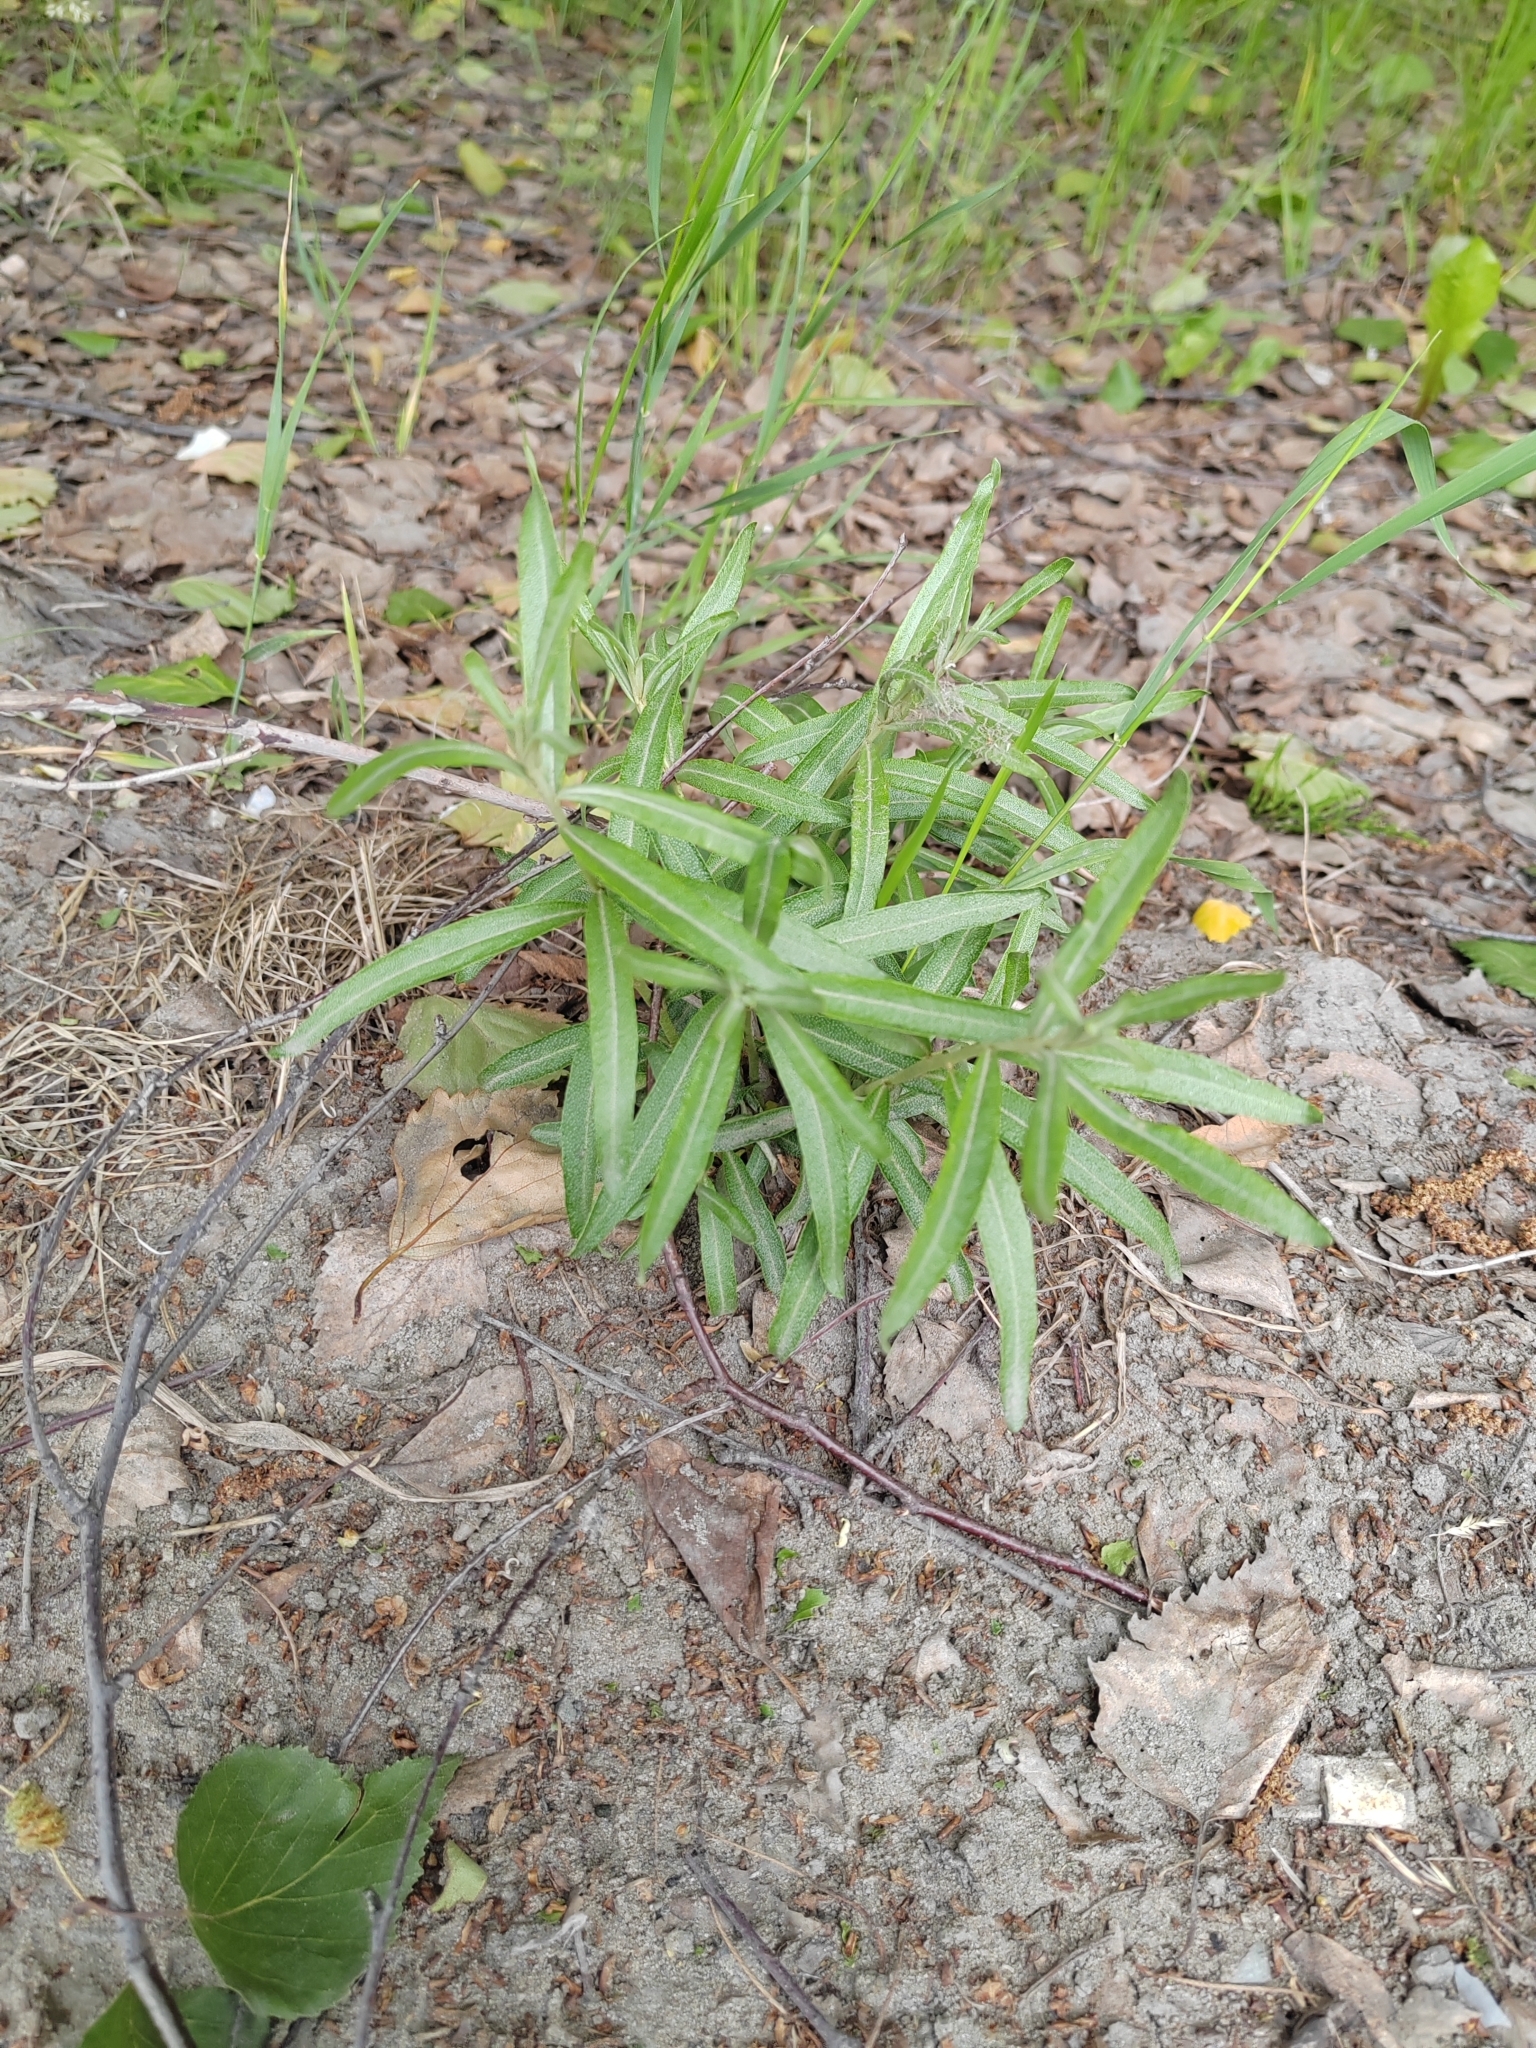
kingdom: Plantae
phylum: Tracheophyta
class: Magnoliopsida
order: Rosales
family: Elaeagnaceae
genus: Hippophae
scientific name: Hippophae rhamnoides
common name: Sea-buckthorn
